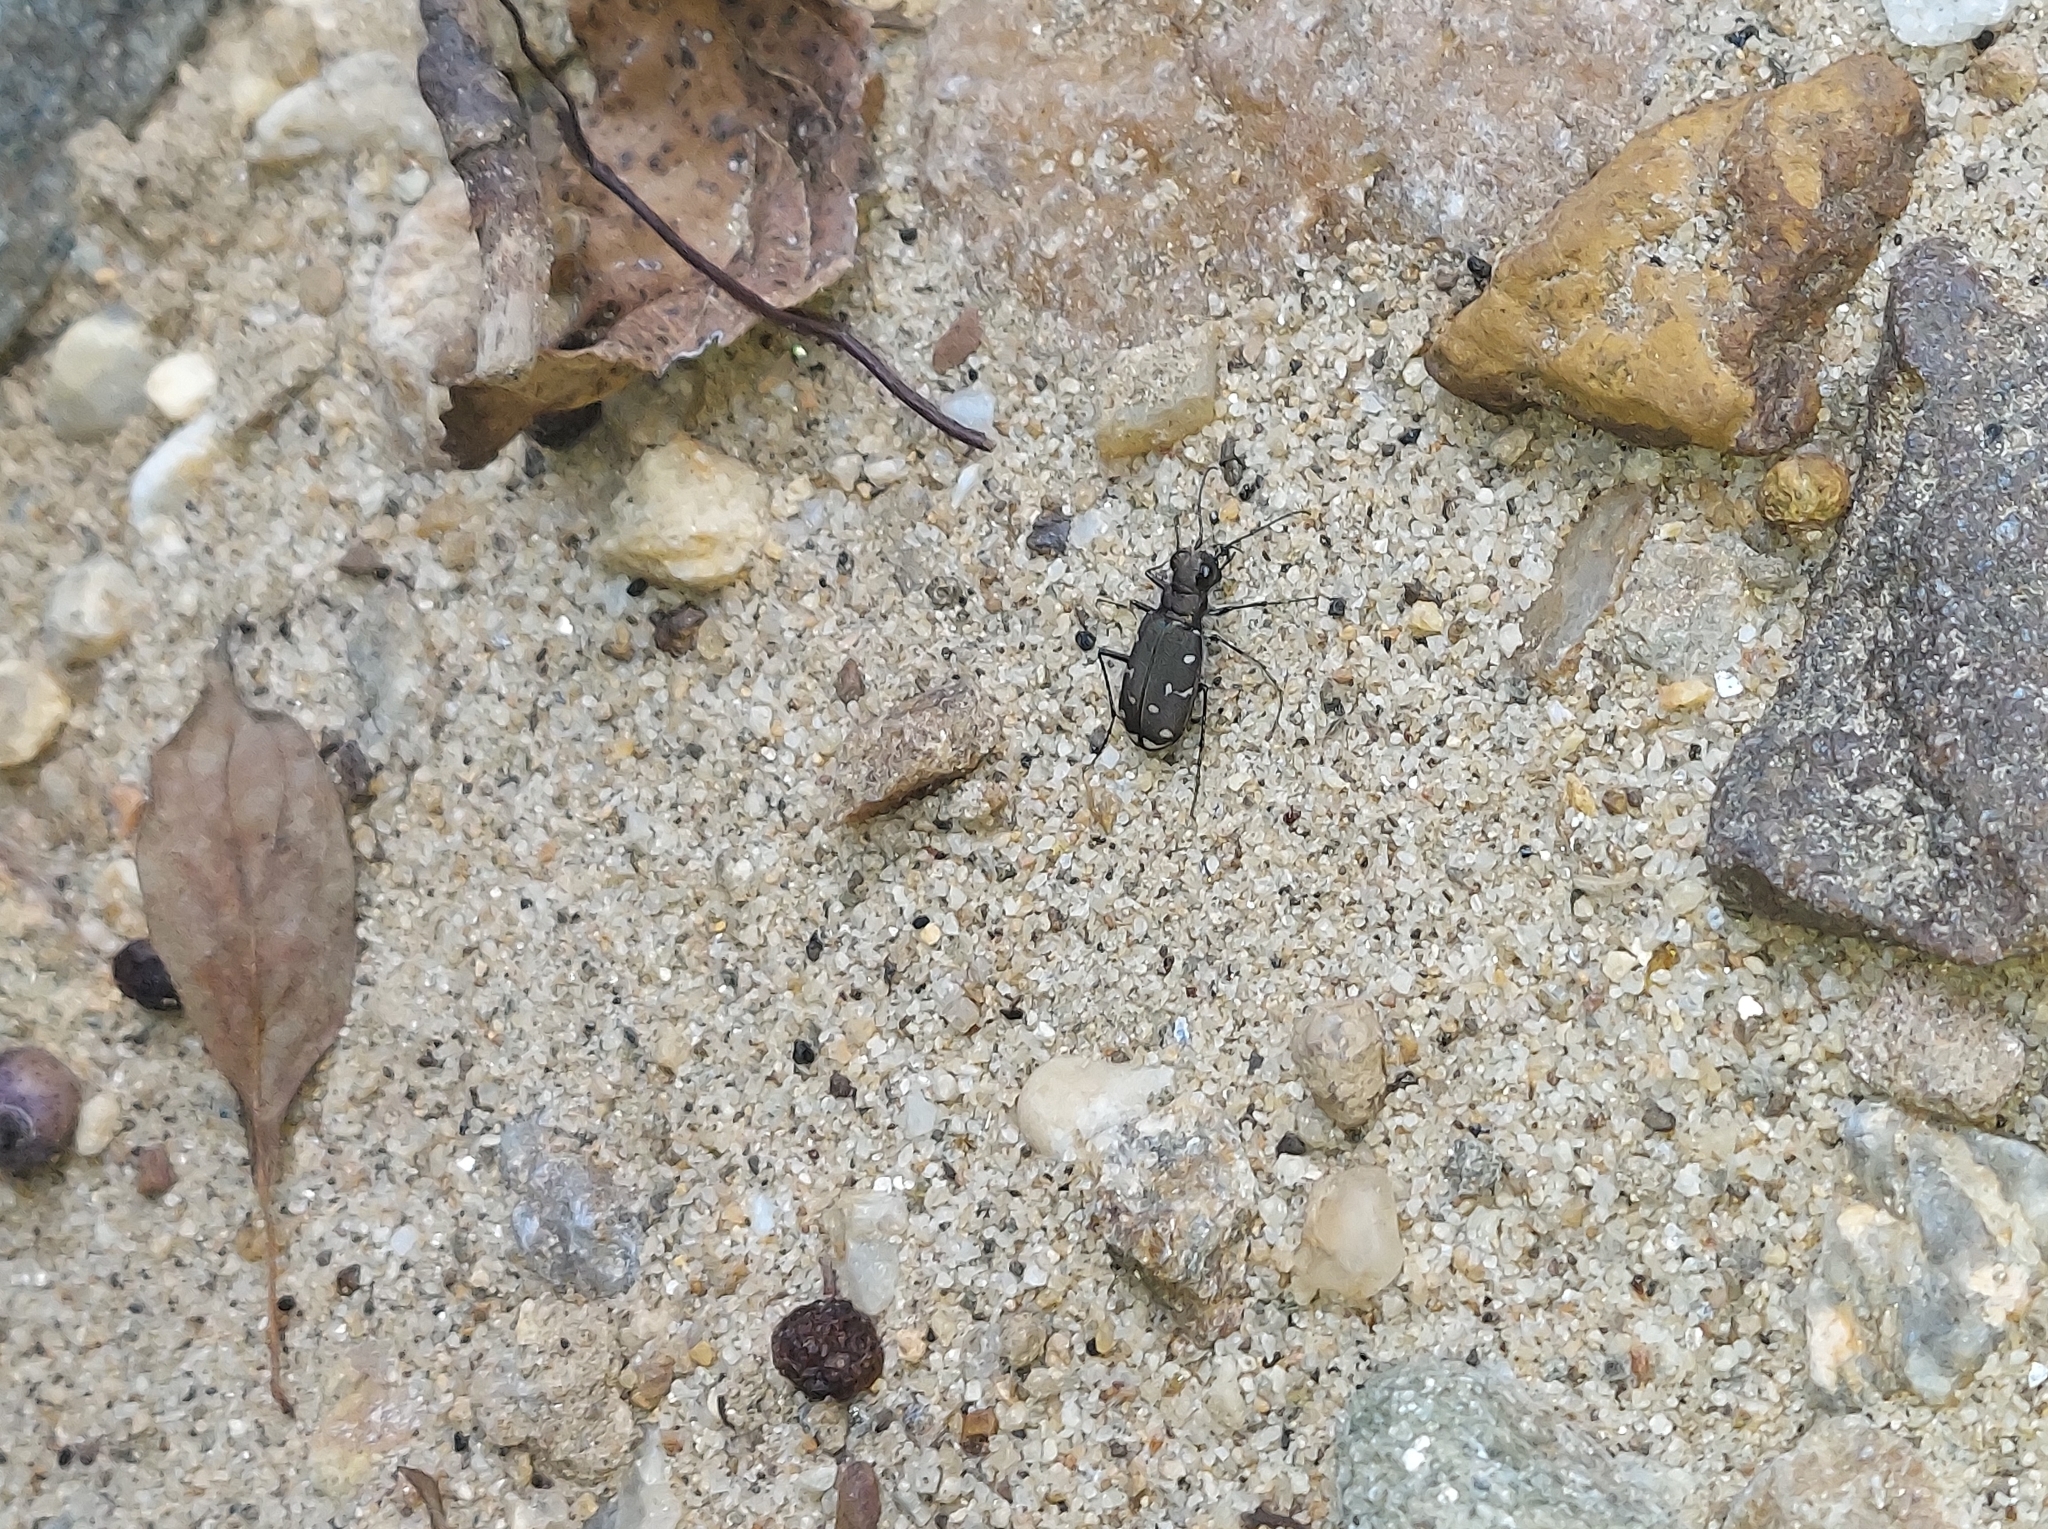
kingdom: Animalia
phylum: Arthropoda
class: Insecta
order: Coleoptera
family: Carabidae
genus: Cicindela
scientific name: Cicindela duodecimguttata
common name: Twelve-spotted tiger beetle
